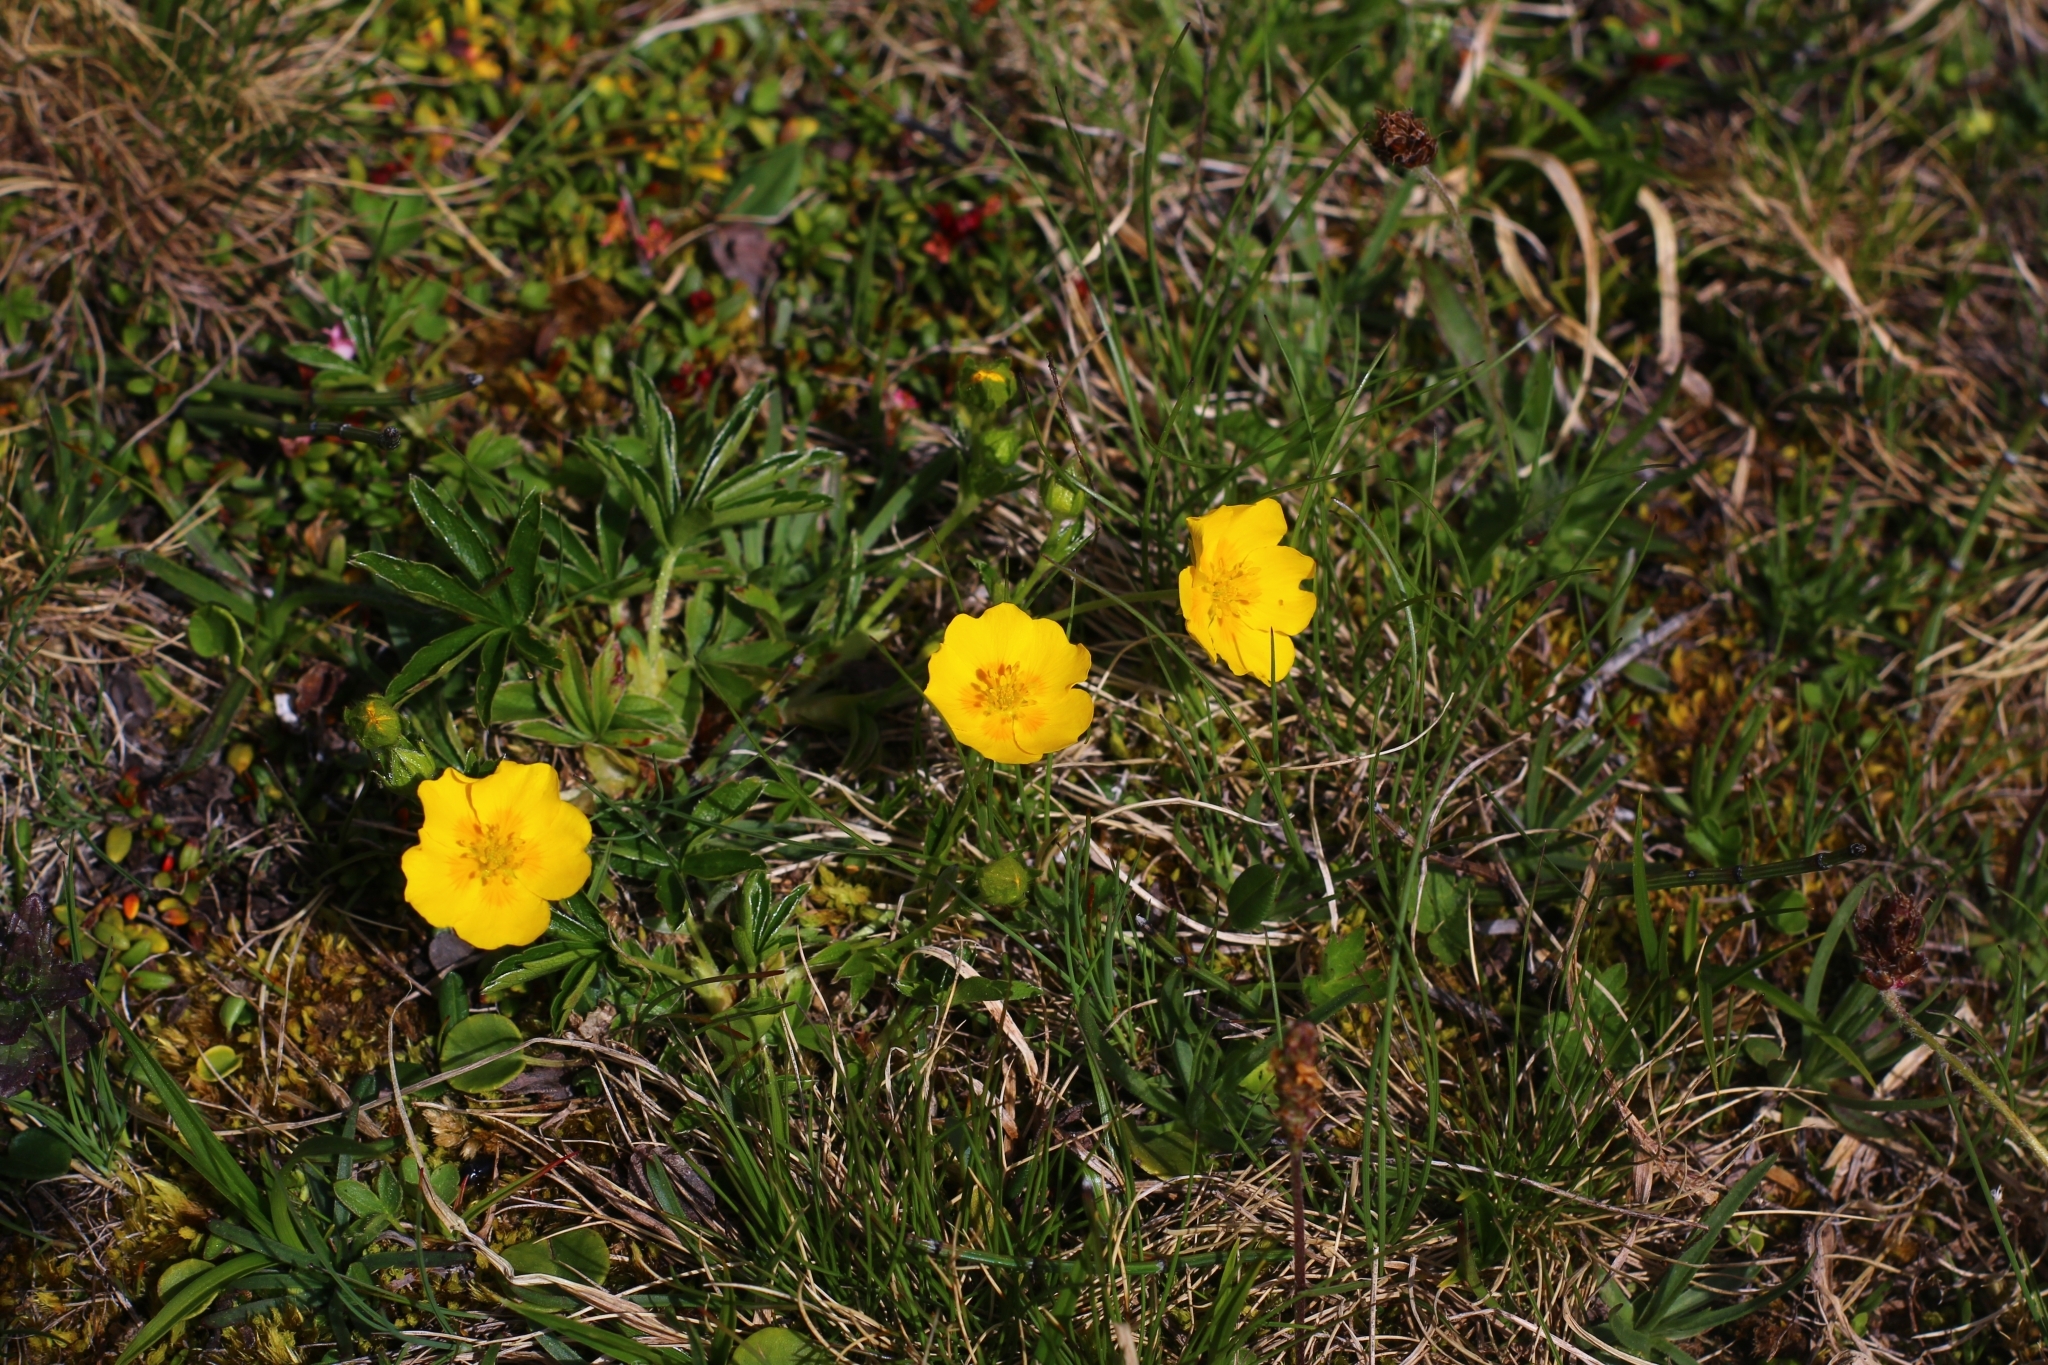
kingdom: Plantae
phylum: Tracheophyta
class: Magnoliopsida
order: Rosales
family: Rosaceae
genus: Potentilla
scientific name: Potentilla aurea
